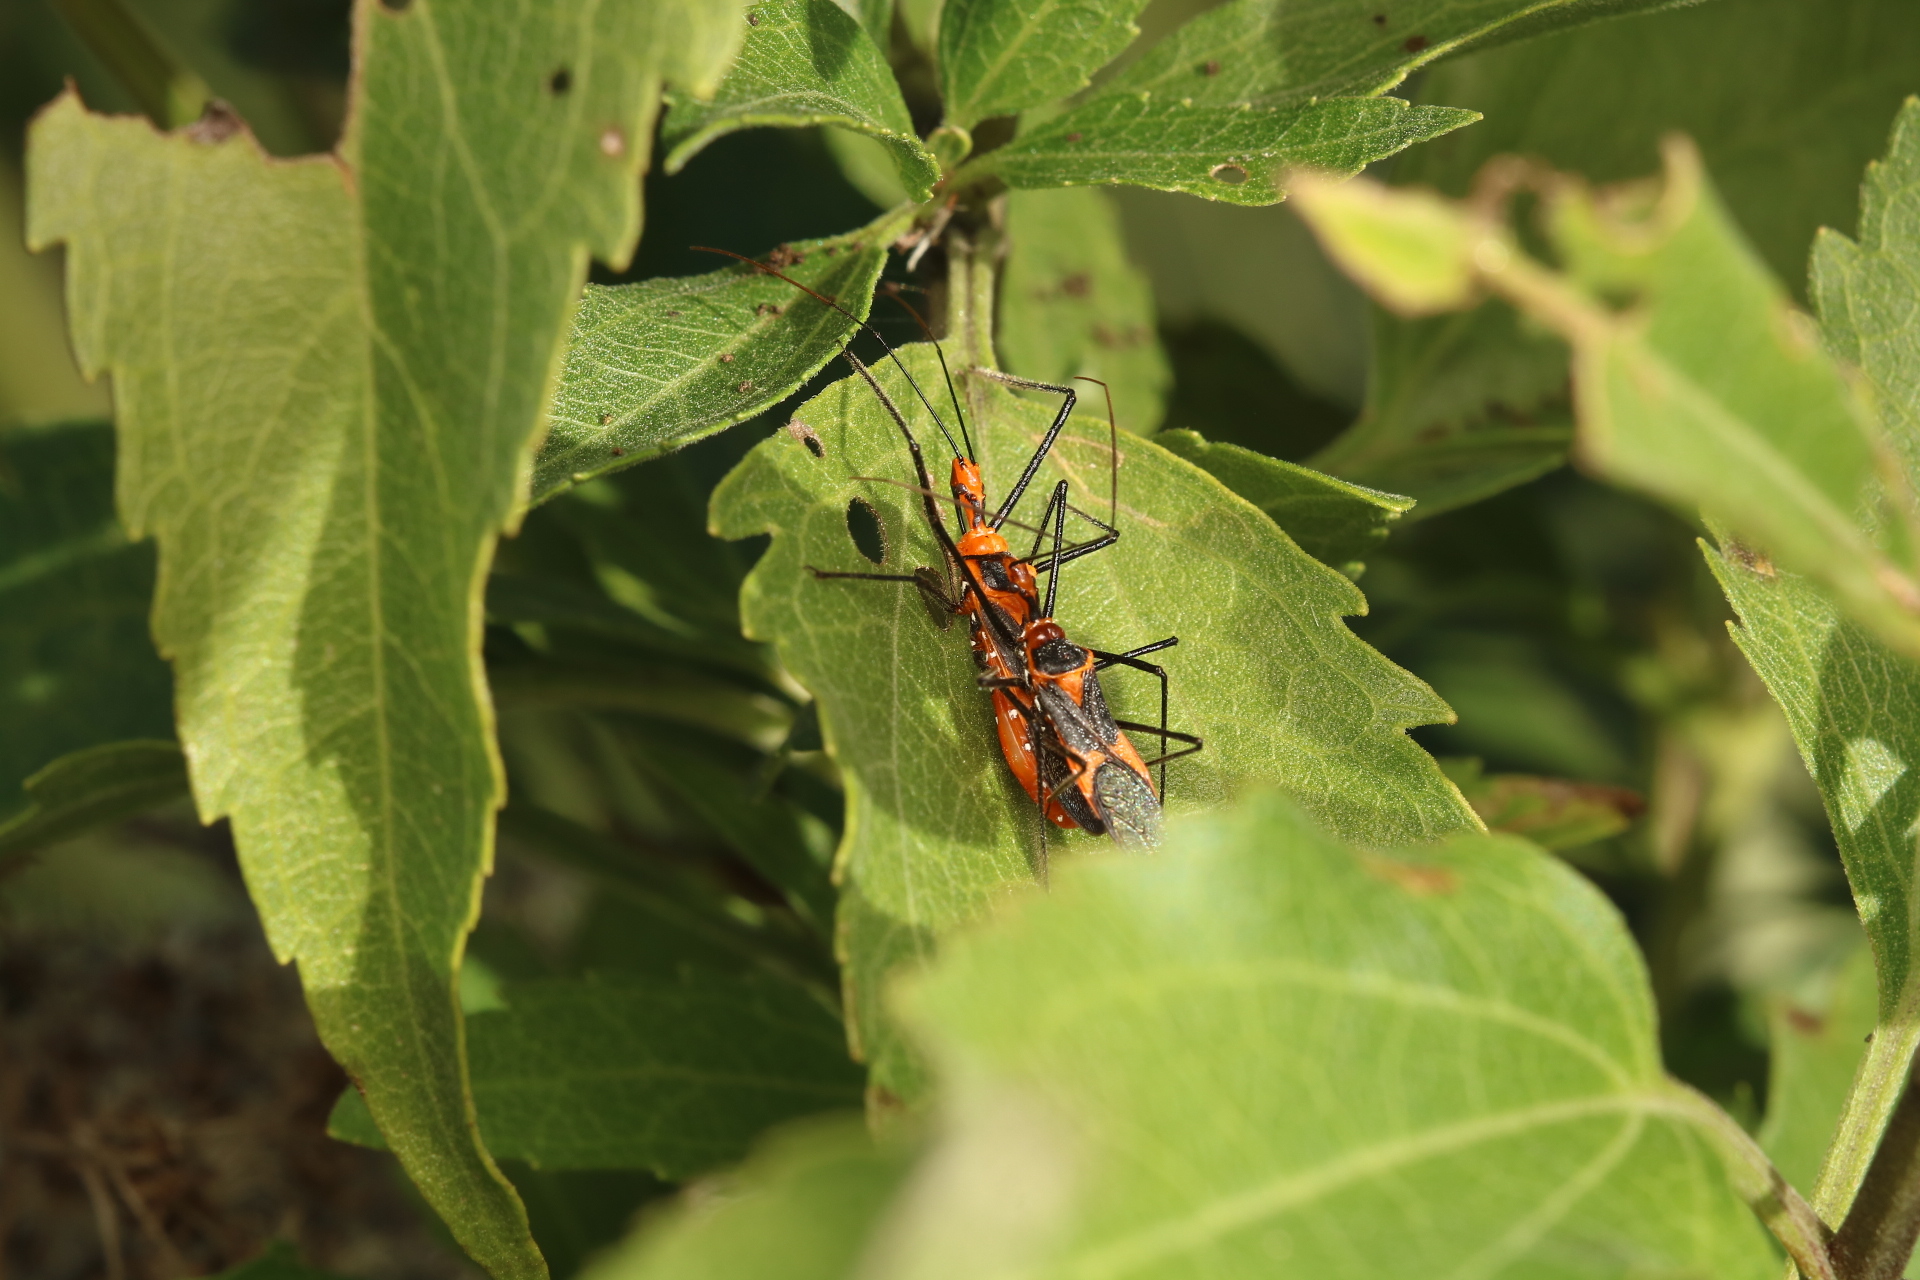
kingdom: Animalia
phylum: Arthropoda
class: Insecta
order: Hemiptera
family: Reduviidae
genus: Zelus
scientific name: Zelus longipes
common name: Milkweed assassin bug
